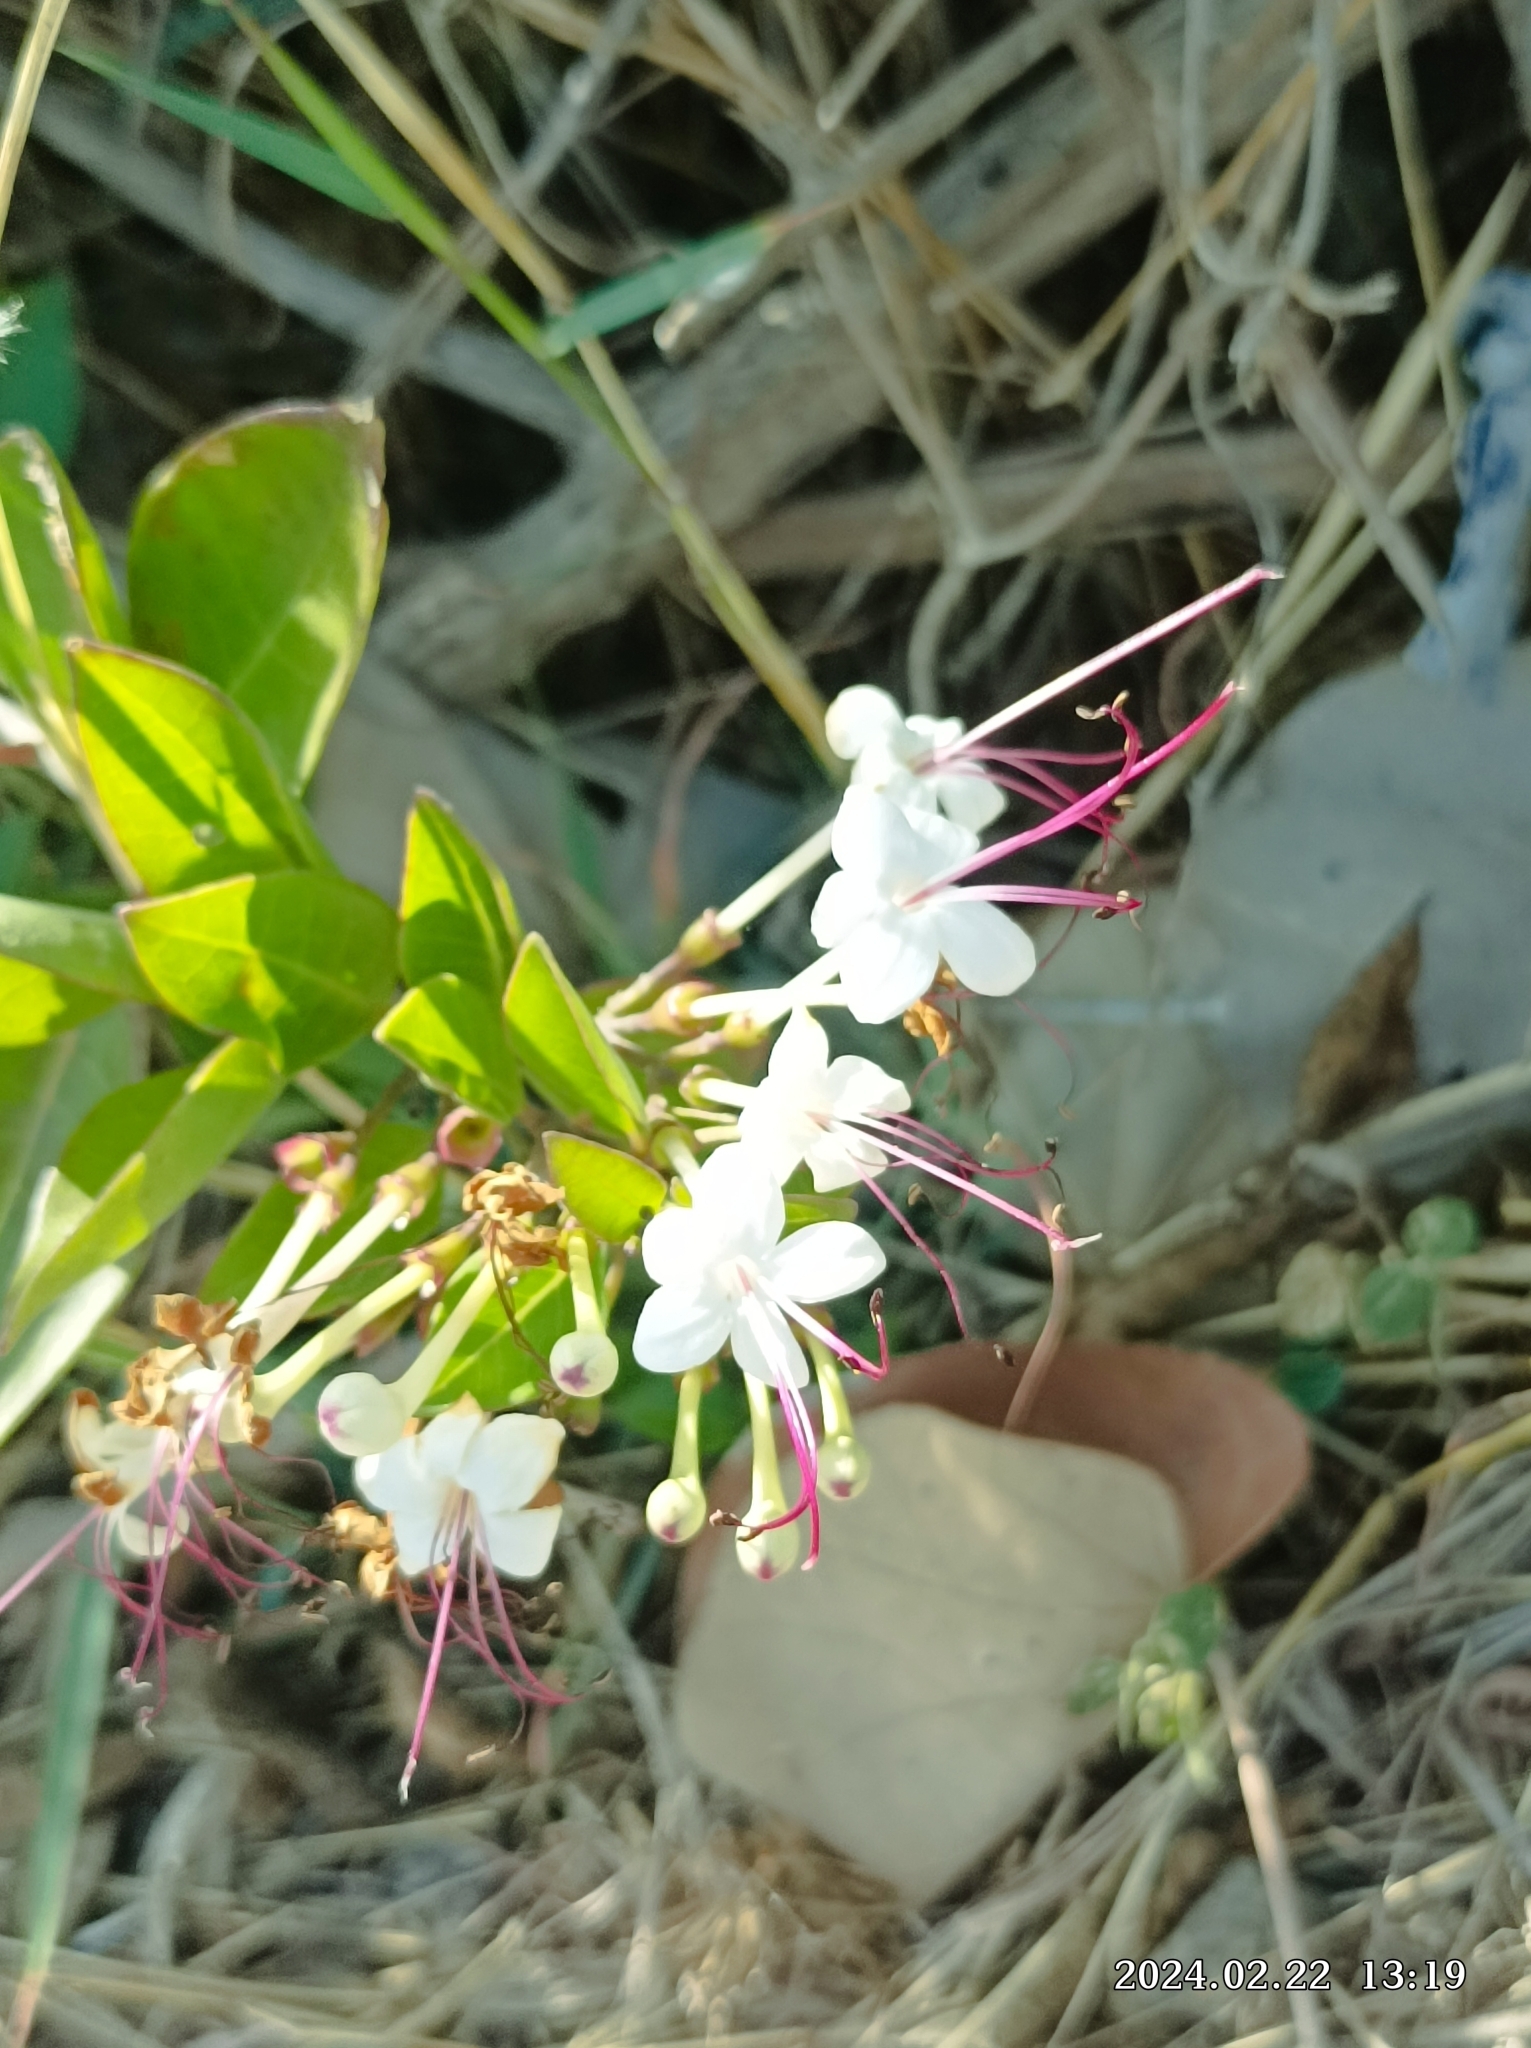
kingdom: Plantae
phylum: Tracheophyta
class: Magnoliopsida
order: Lamiales
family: Lamiaceae
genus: Volkameria
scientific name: Volkameria inermis
